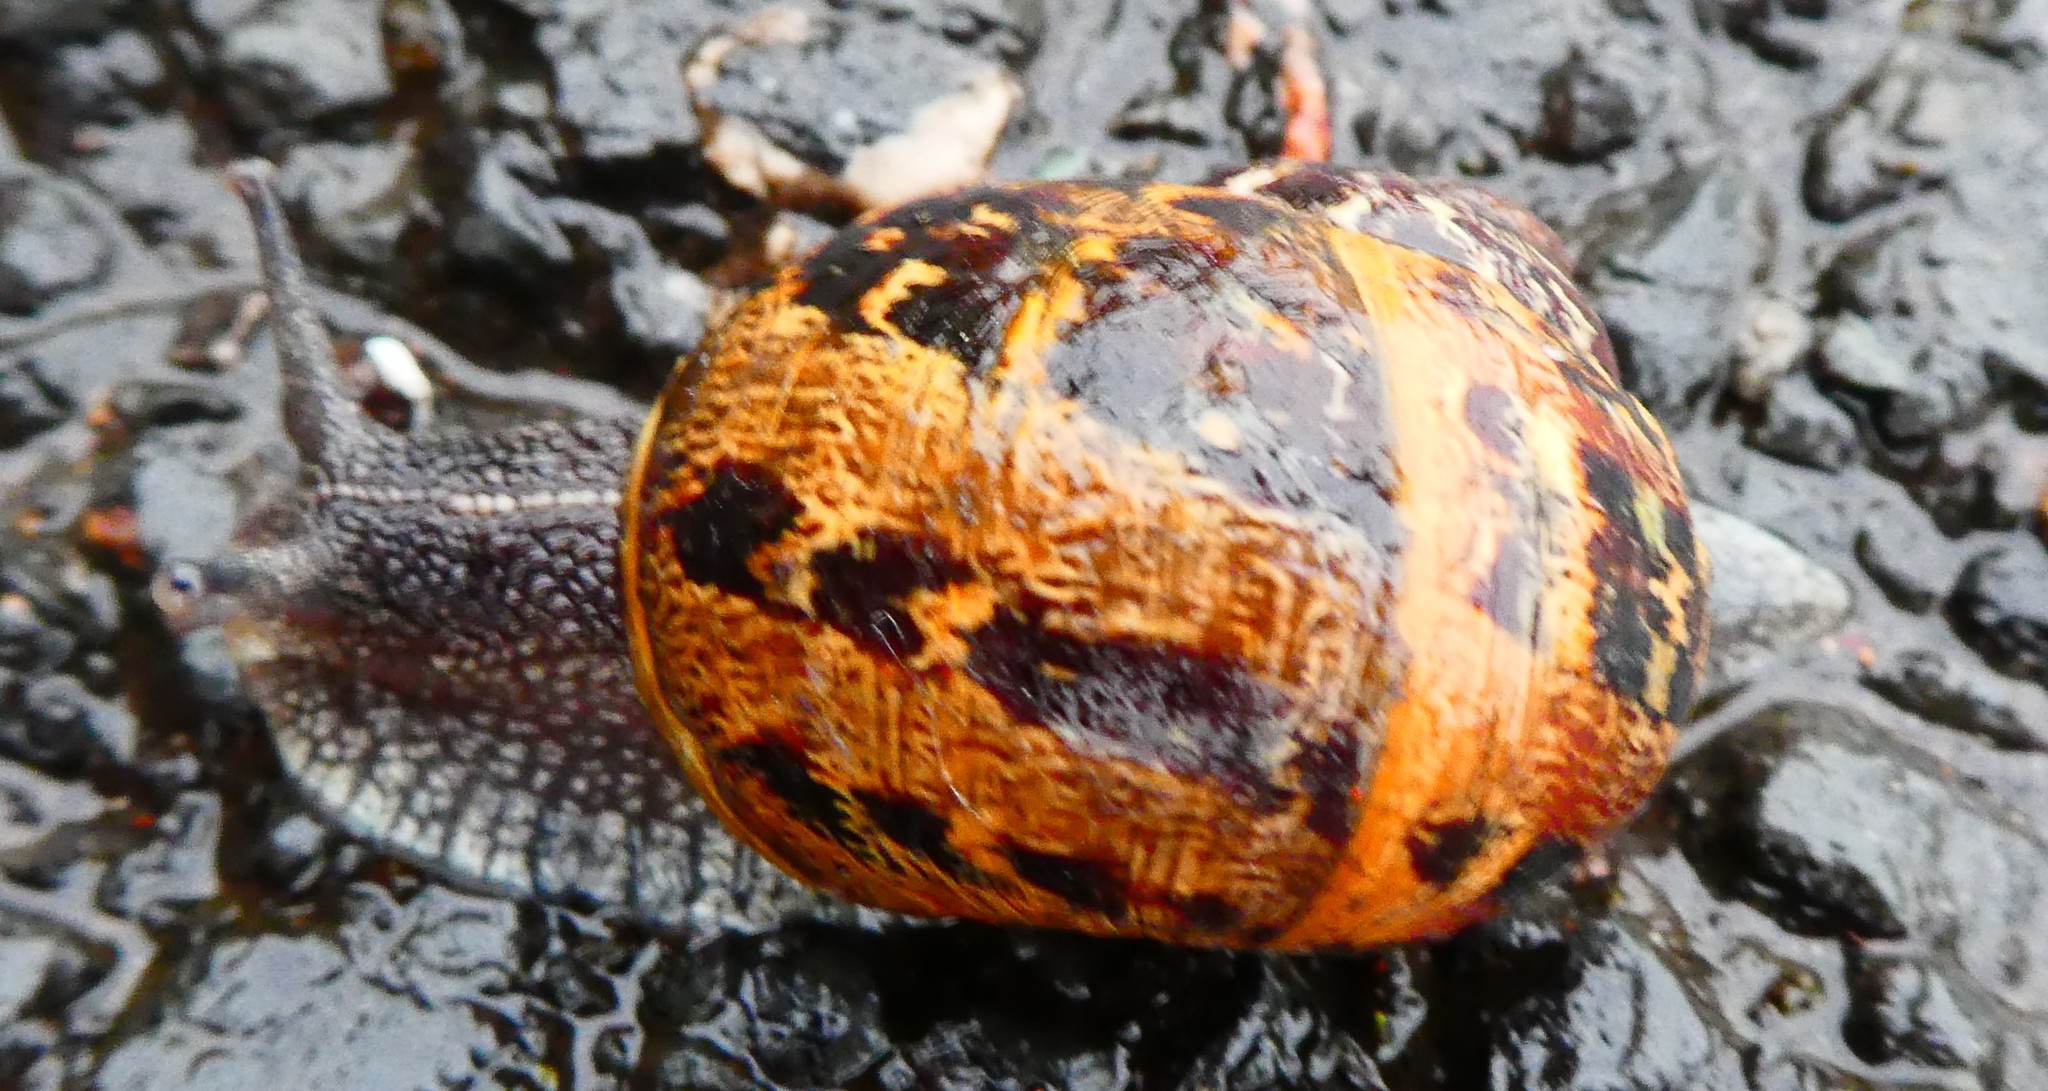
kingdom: Animalia
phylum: Mollusca
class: Gastropoda
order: Stylommatophora
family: Helicidae
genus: Cornu
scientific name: Cornu aspersum
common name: Brown garden snail
